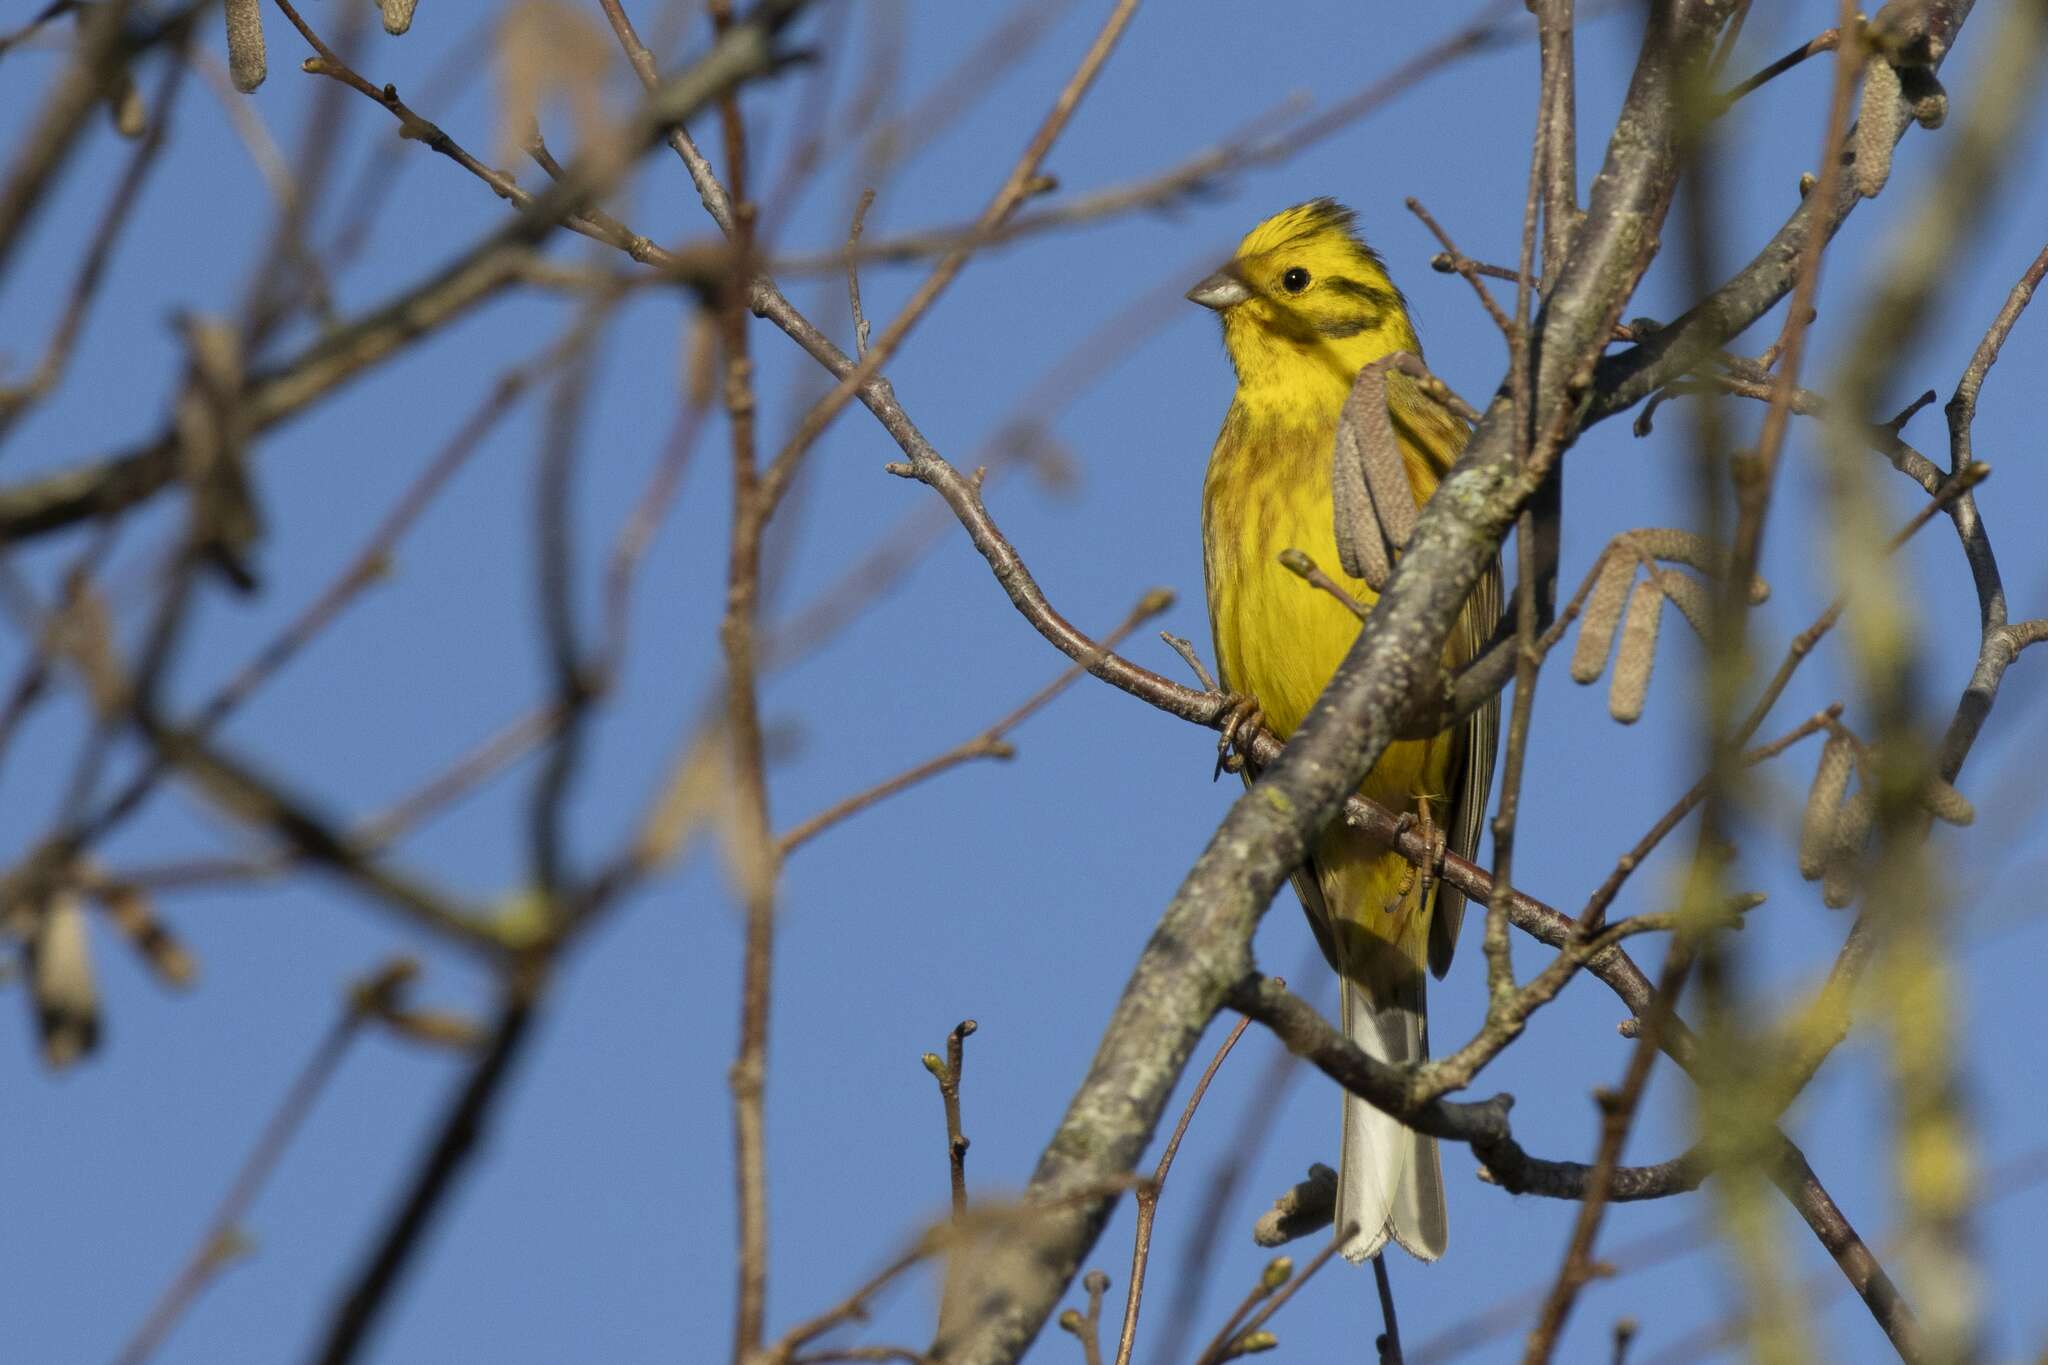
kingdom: Animalia
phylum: Chordata
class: Aves
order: Passeriformes
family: Emberizidae
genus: Emberiza
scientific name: Emberiza citrinella
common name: Yellowhammer
